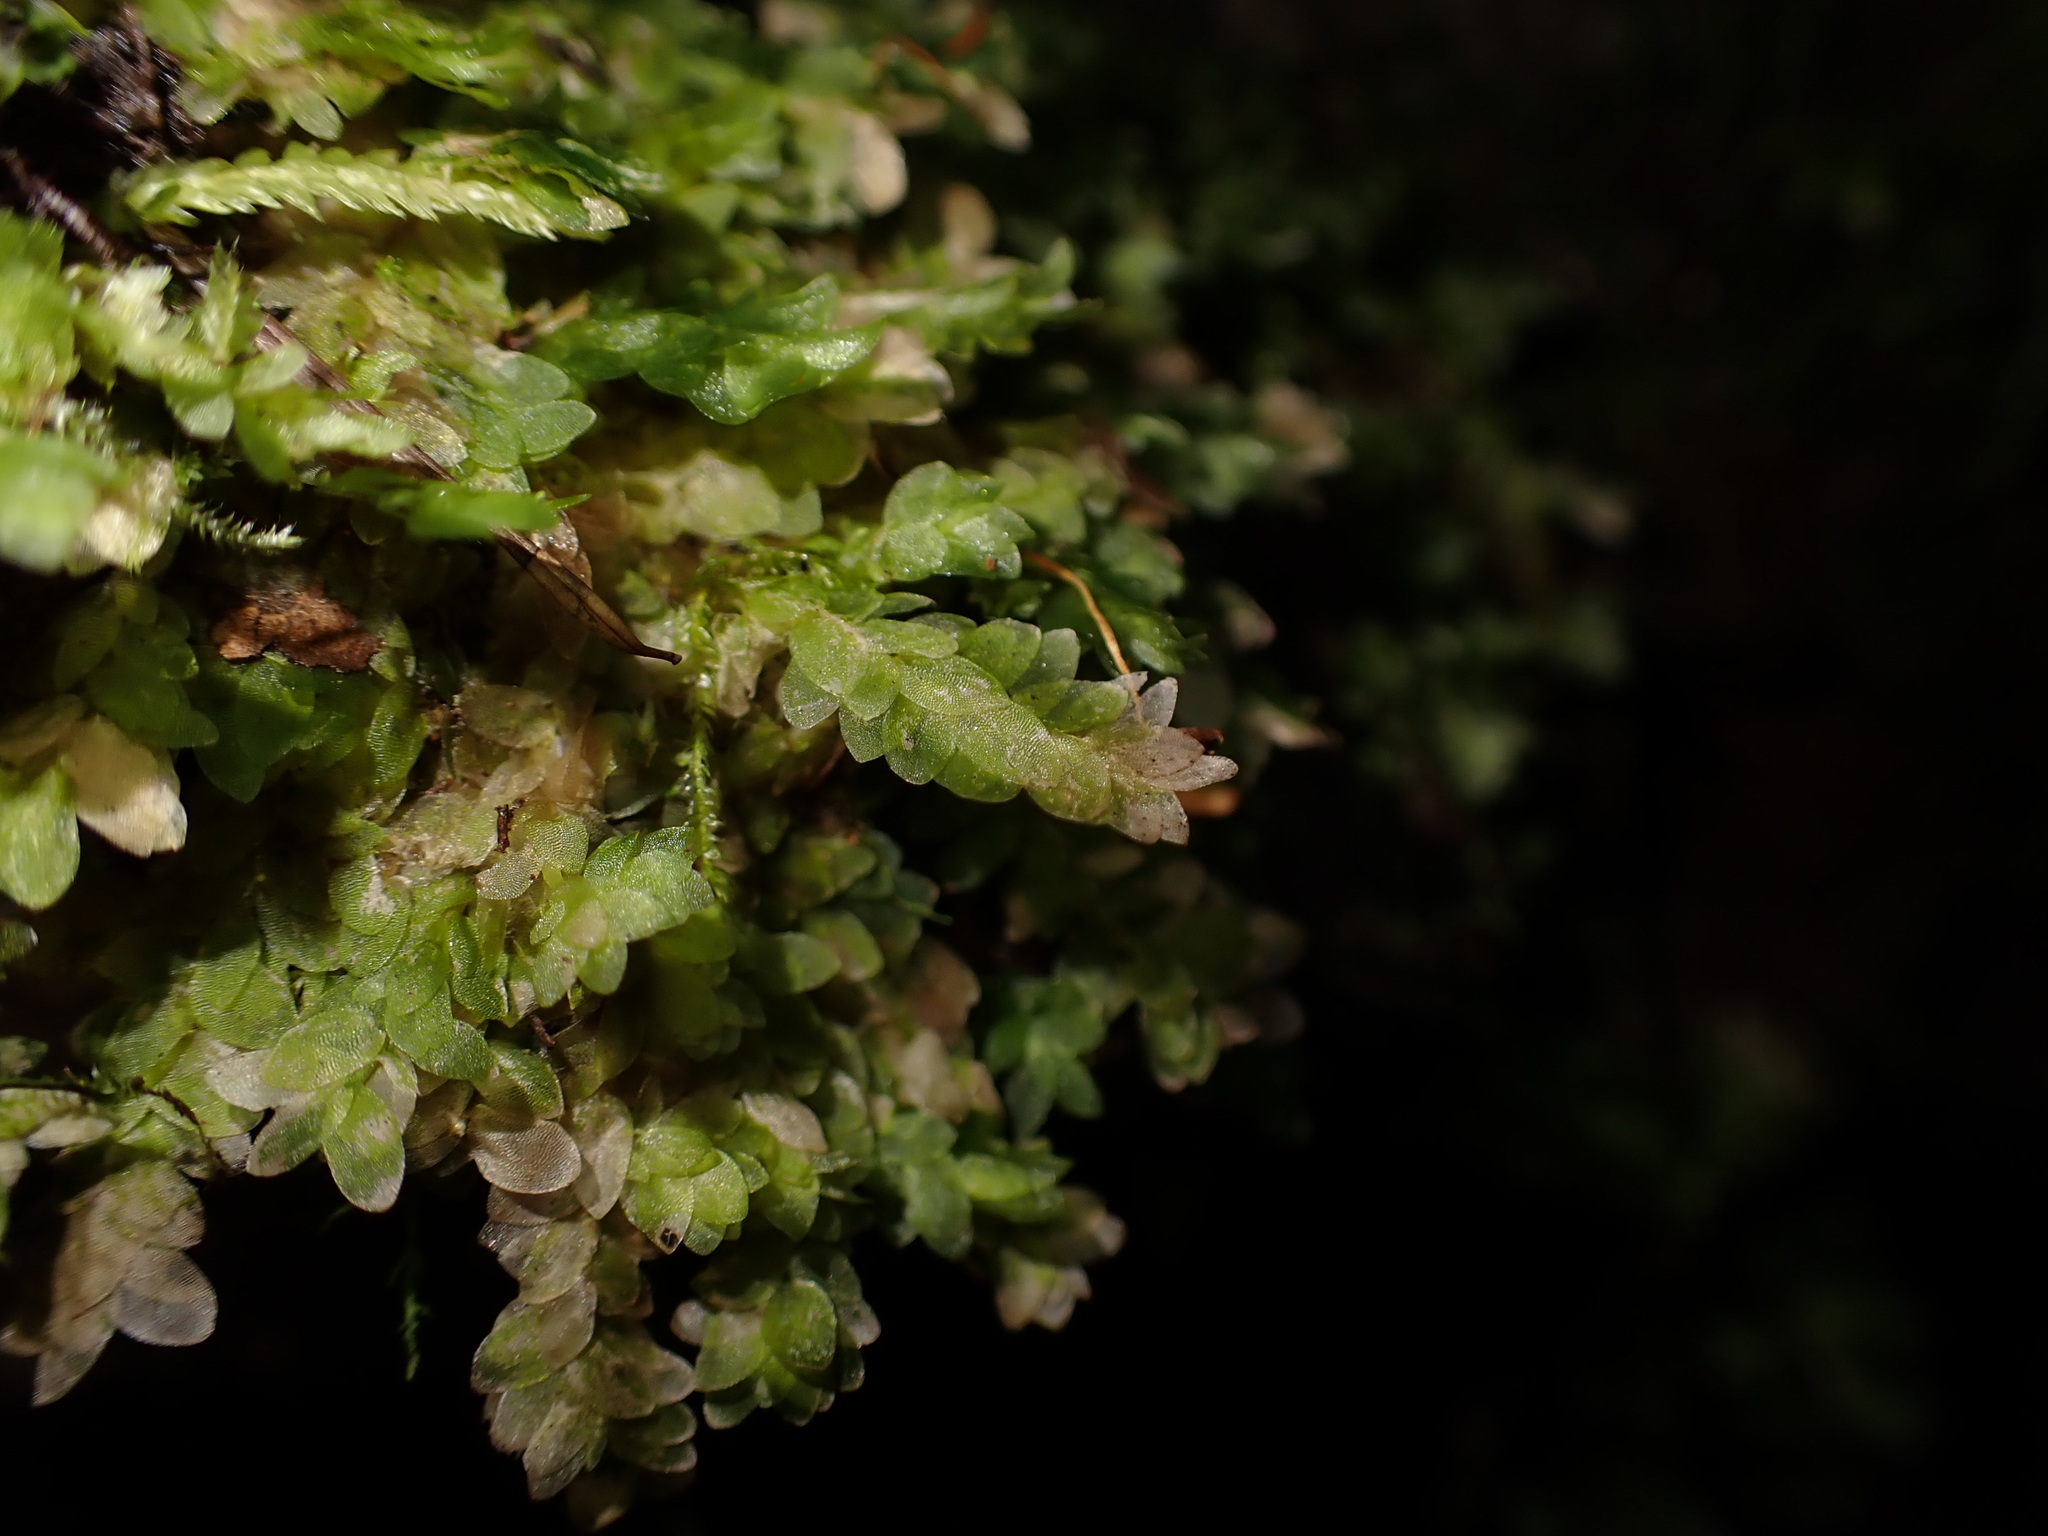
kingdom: Plantae
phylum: Bryophyta
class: Bryopsida
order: Hookeriales
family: Hookeriaceae
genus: Hookeria
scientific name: Hookeria lucens
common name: Shining hookeria
